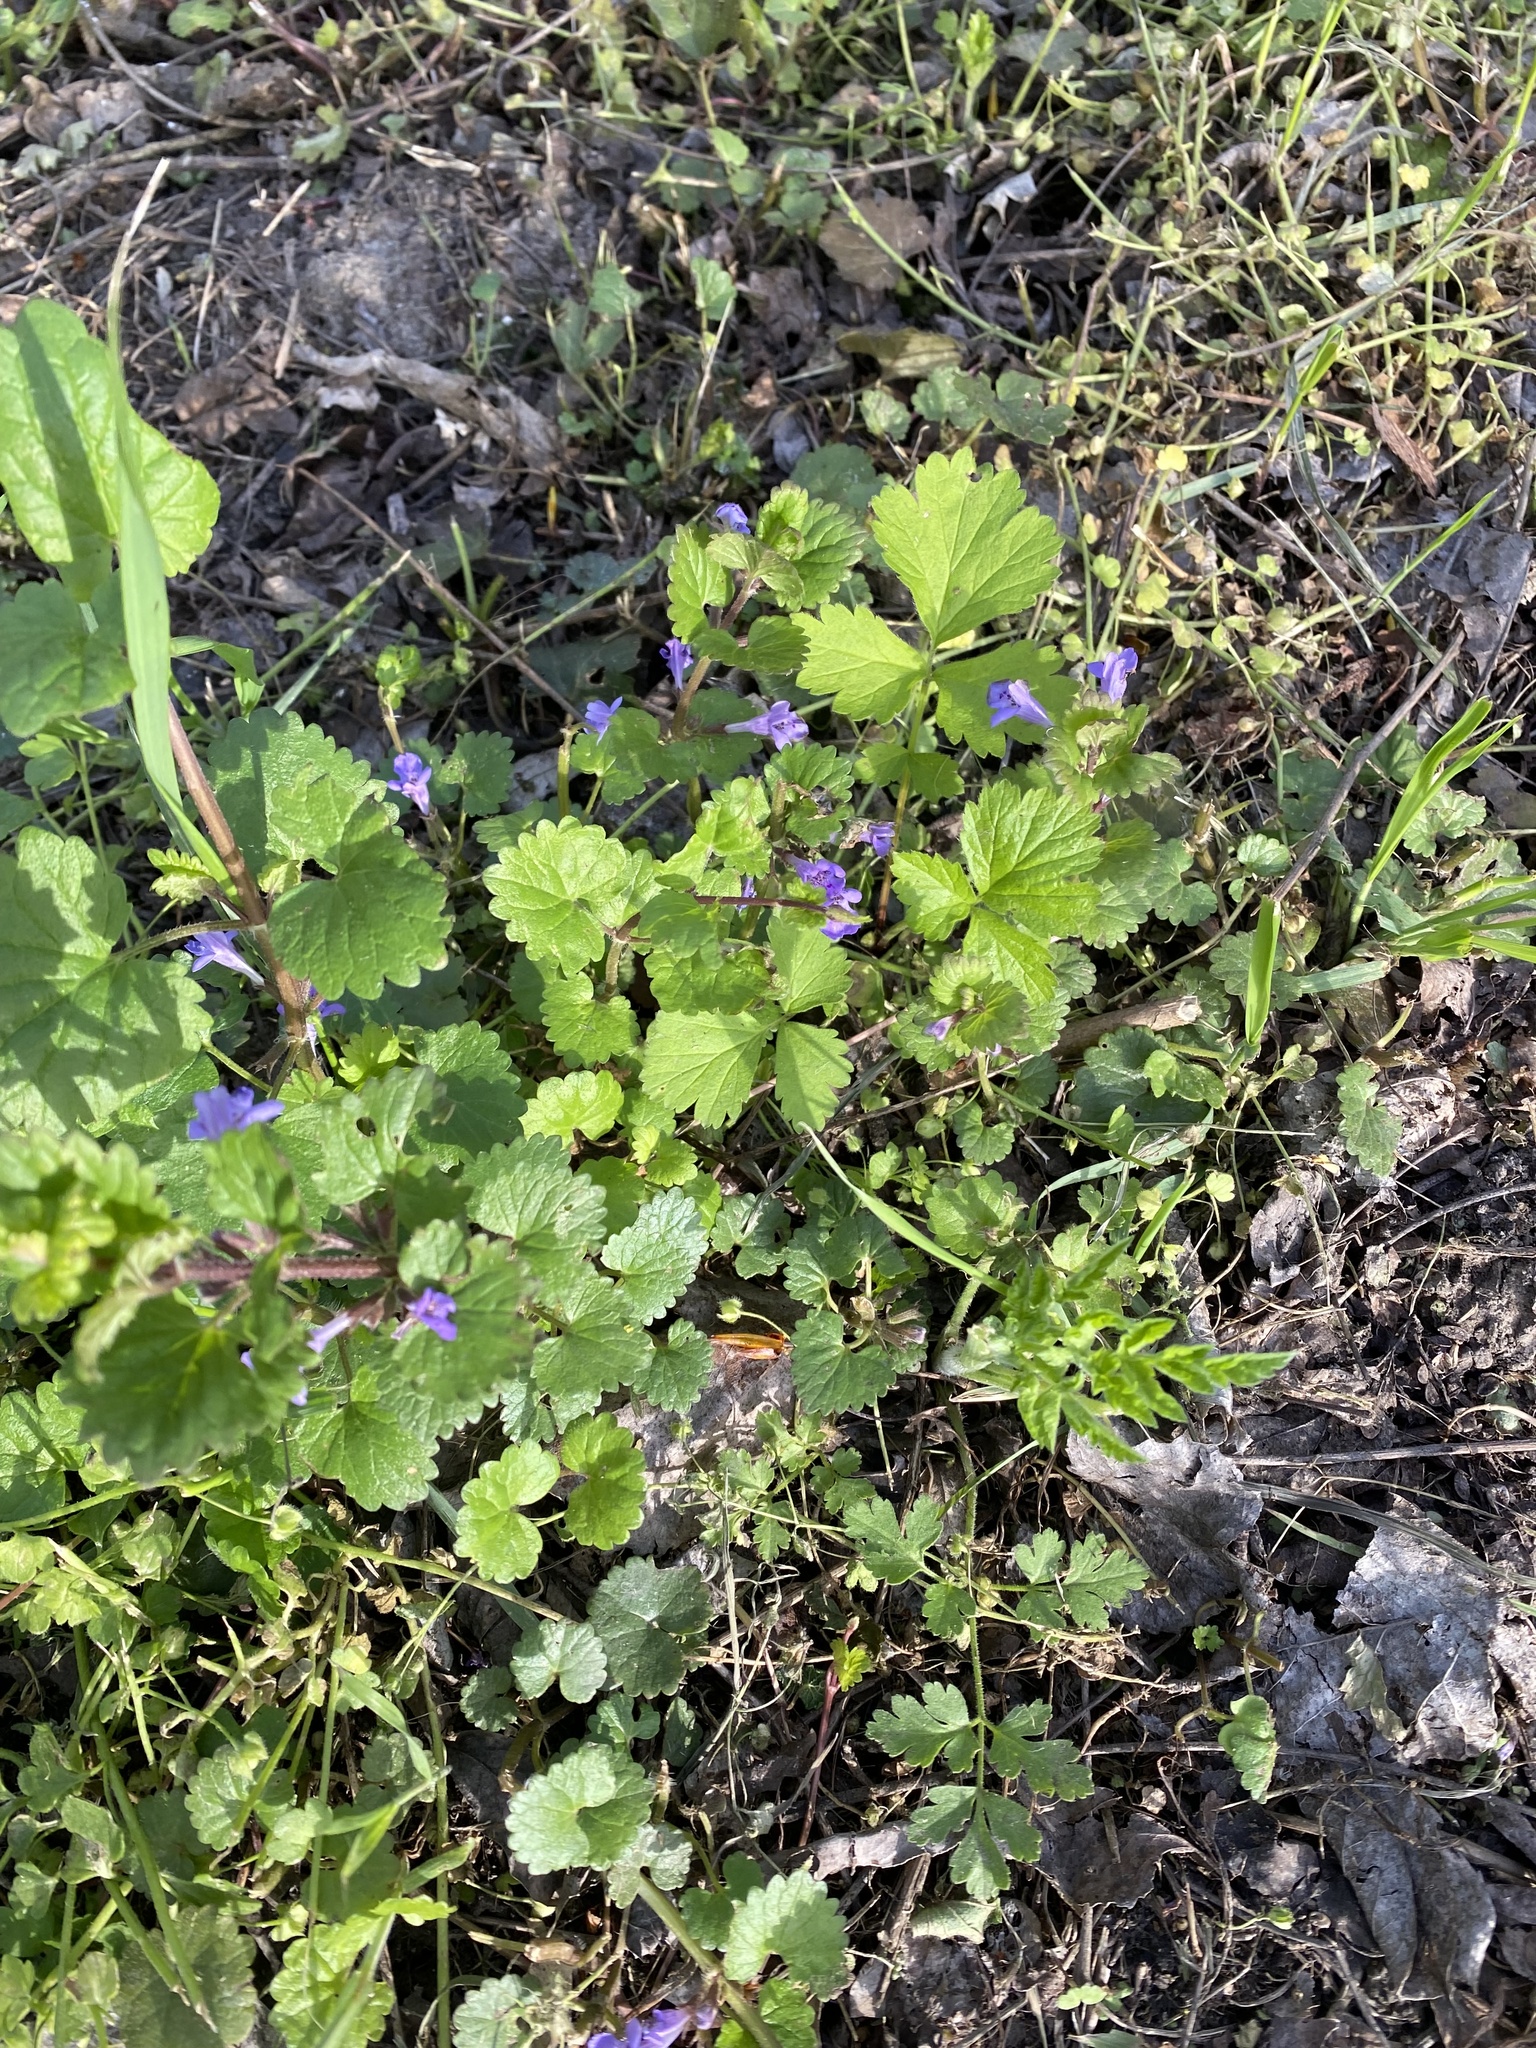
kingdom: Plantae
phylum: Tracheophyta
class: Magnoliopsida
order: Lamiales
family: Lamiaceae
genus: Glechoma
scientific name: Glechoma hederacea
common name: Ground ivy
